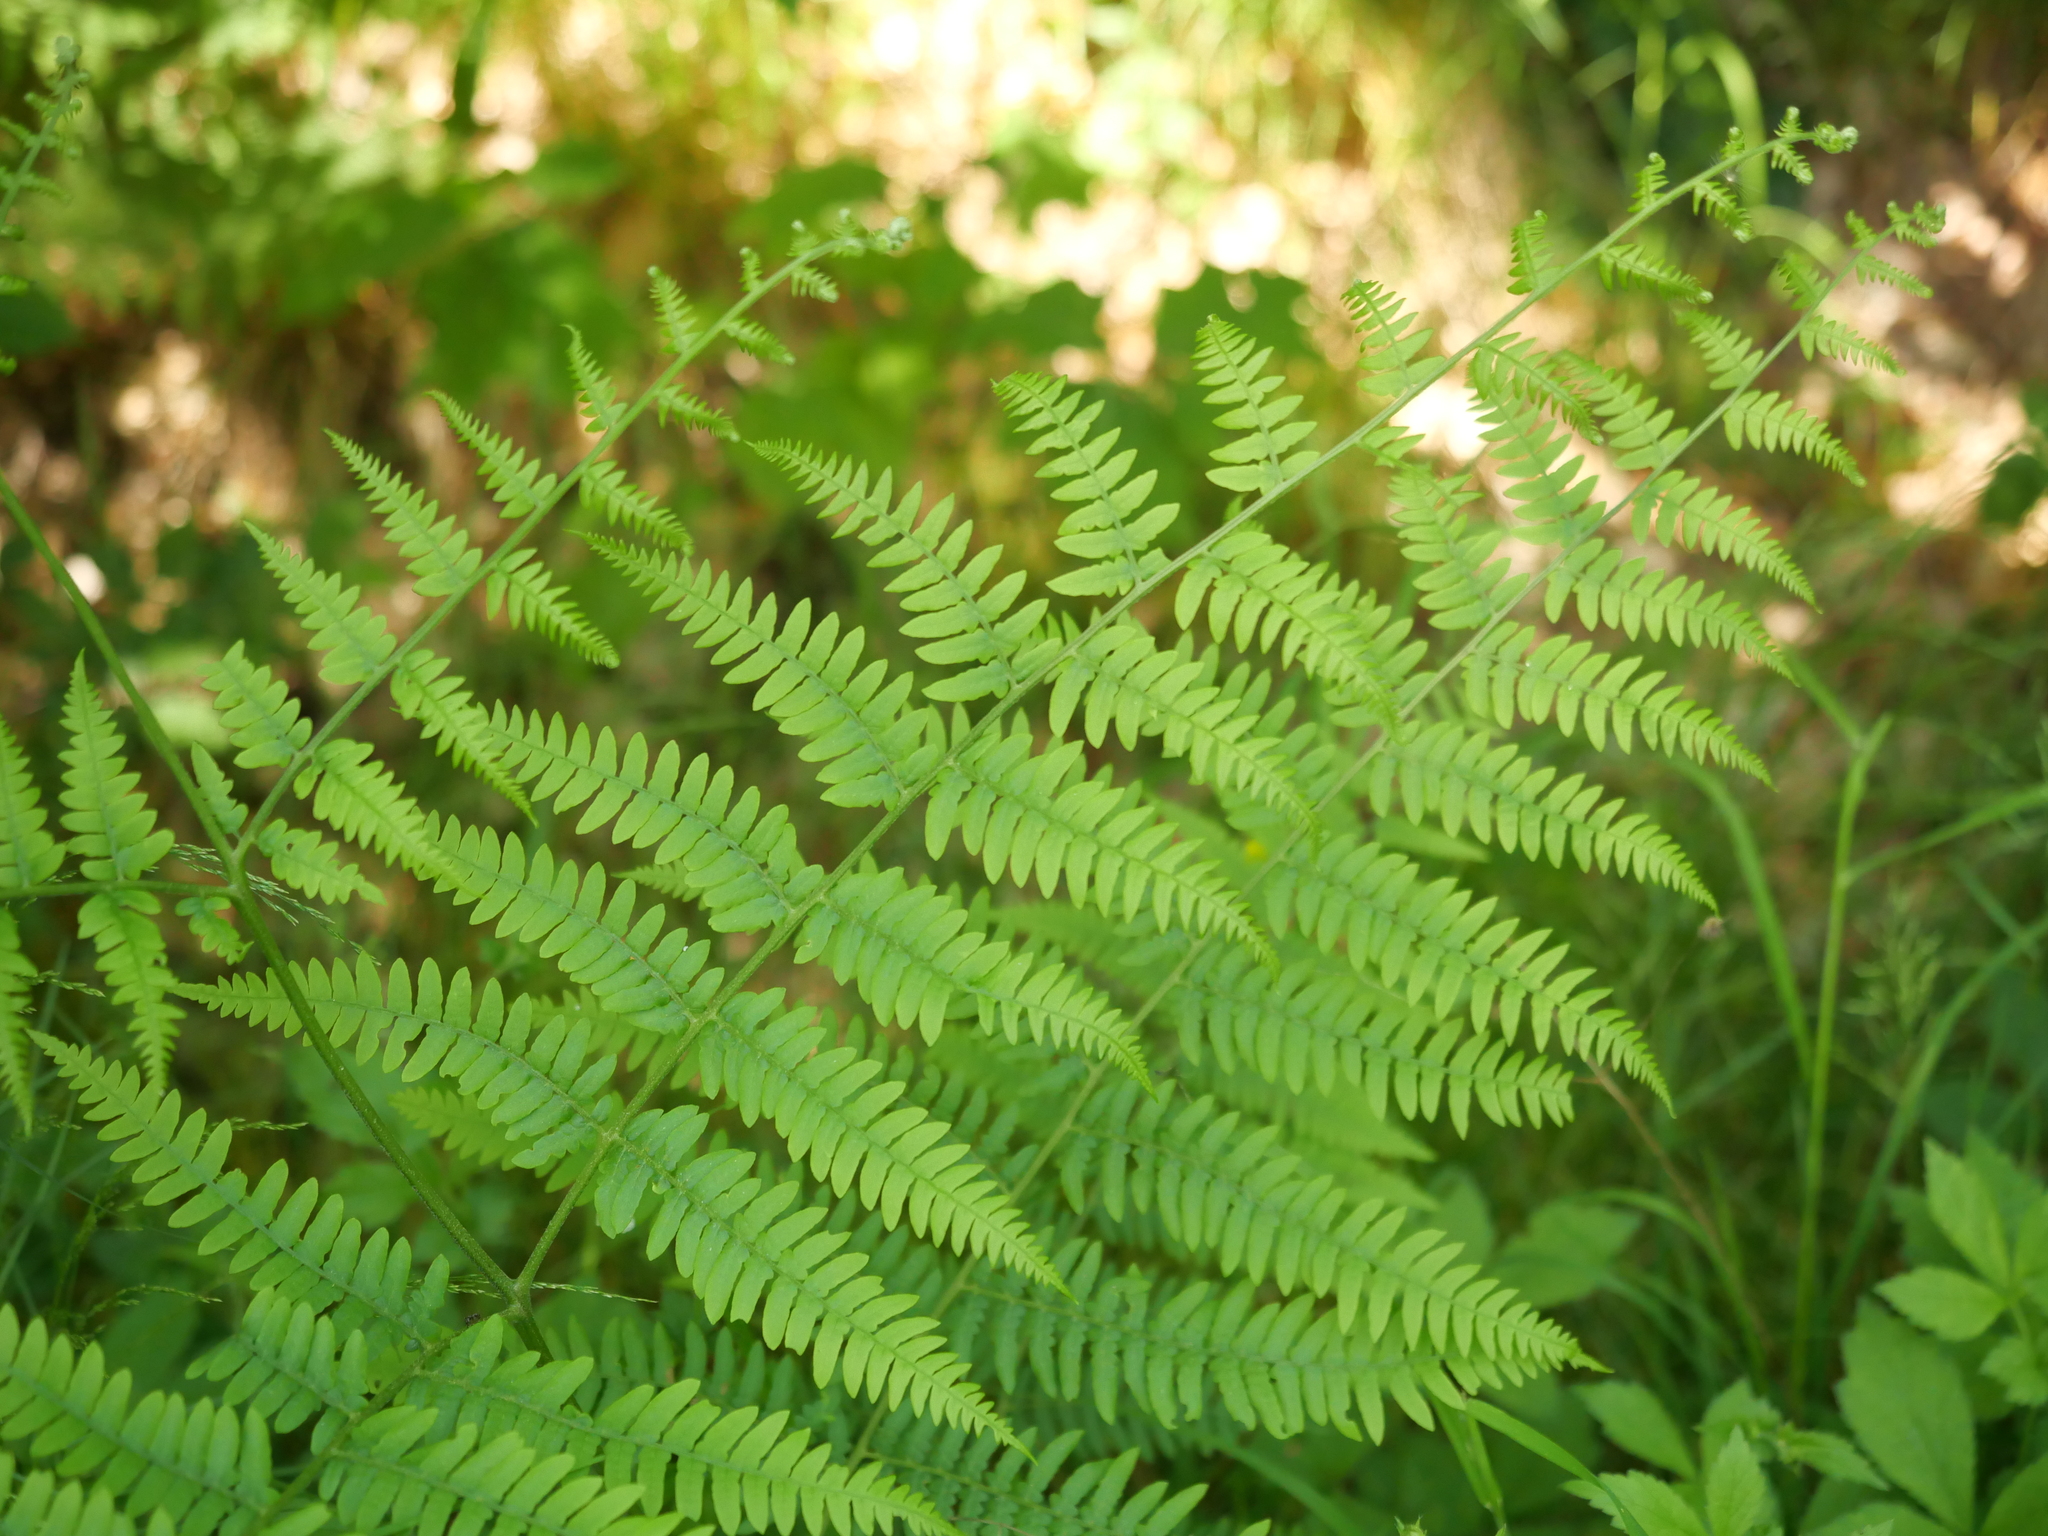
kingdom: Plantae
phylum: Tracheophyta
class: Polypodiopsida
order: Polypodiales
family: Dennstaedtiaceae
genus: Pteridium
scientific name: Pteridium aquilinum
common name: Bracken
